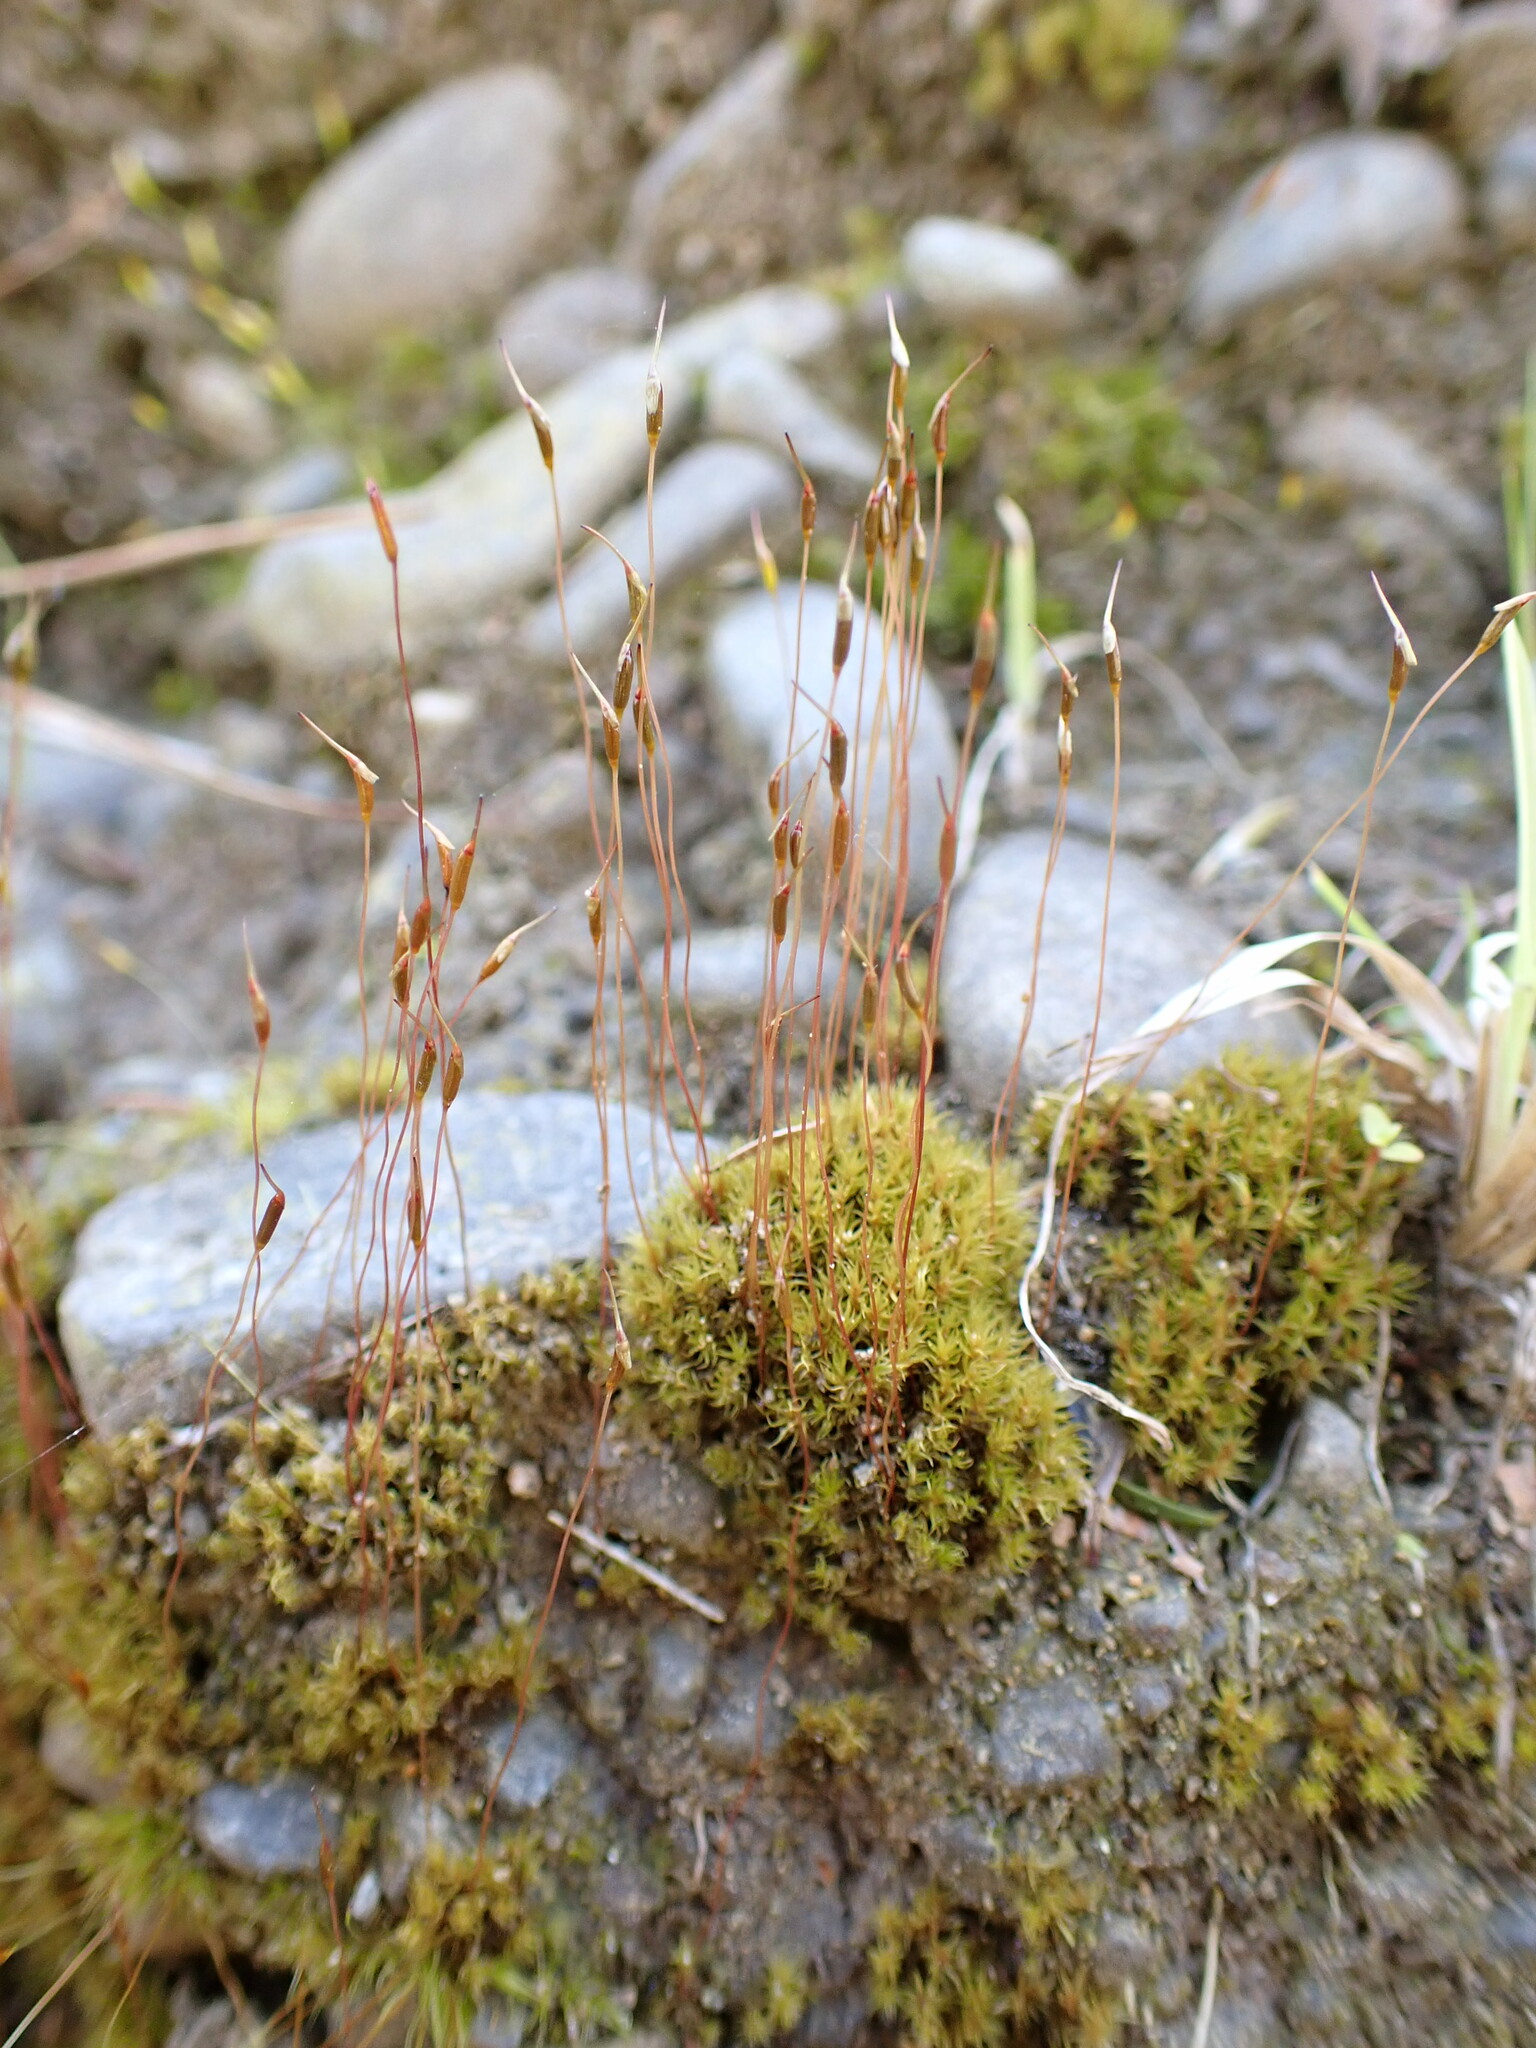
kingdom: Plantae
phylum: Bryophyta
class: Bryopsida
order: Dicranales
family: Ditrichaceae
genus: Ceratodon
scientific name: Ceratodon purpureus
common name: Redshank
